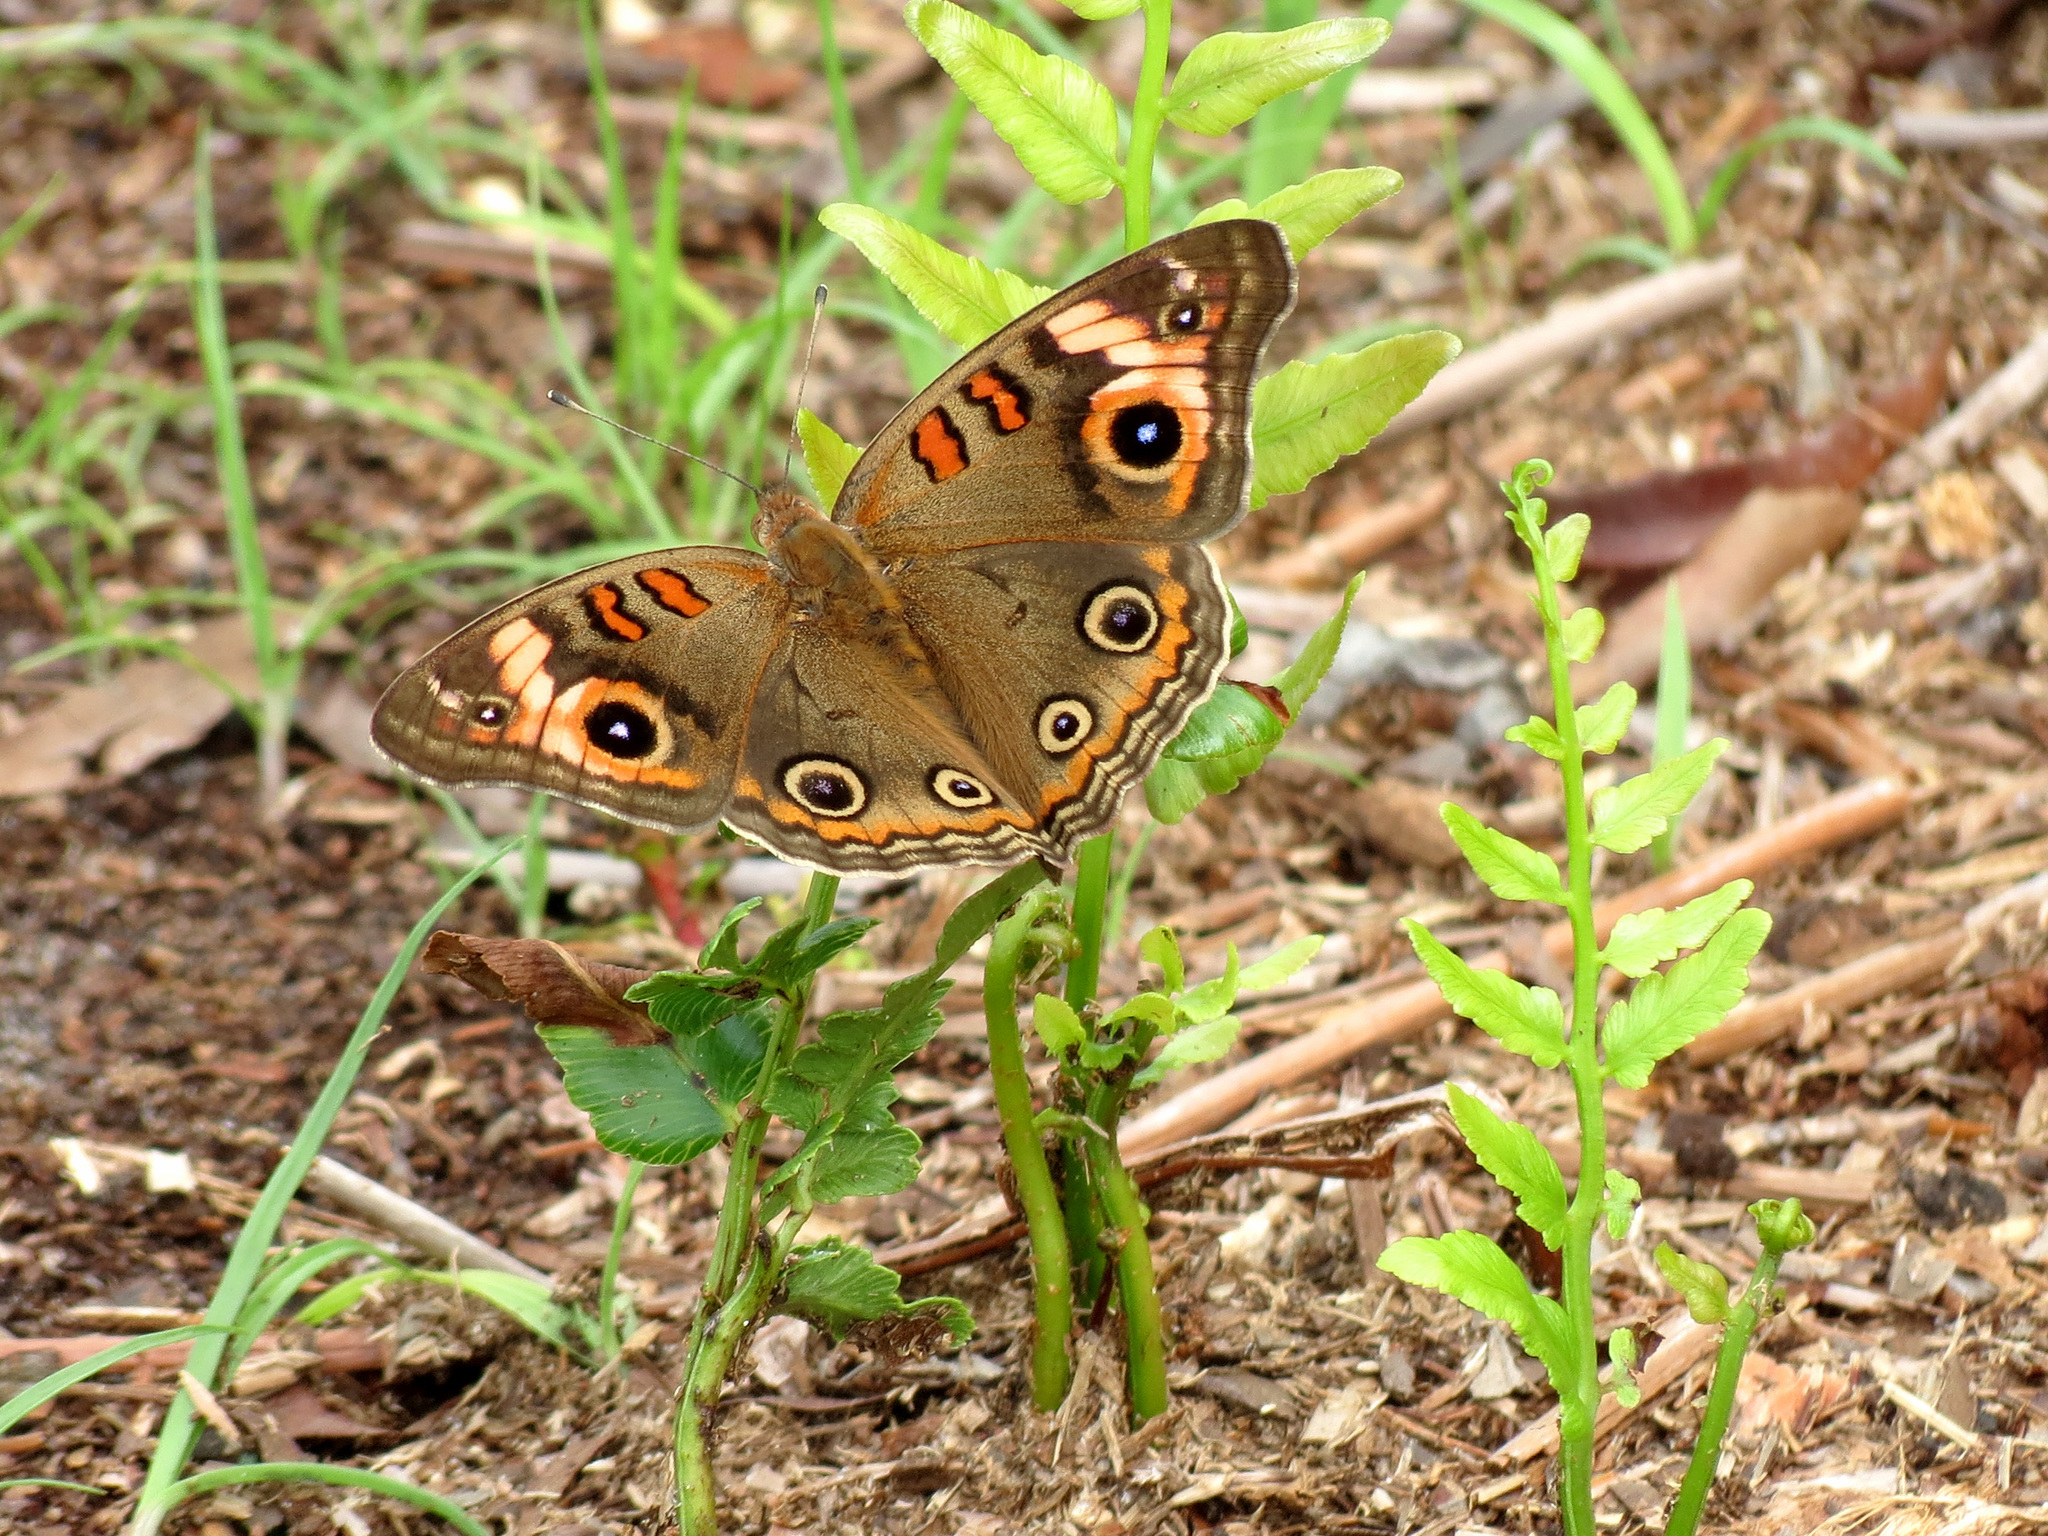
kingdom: Animalia
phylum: Arthropoda
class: Insecta
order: Lepidoptera
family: Nymphalidae
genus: Junonia
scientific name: Junonia coenia
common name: Common buckeye
